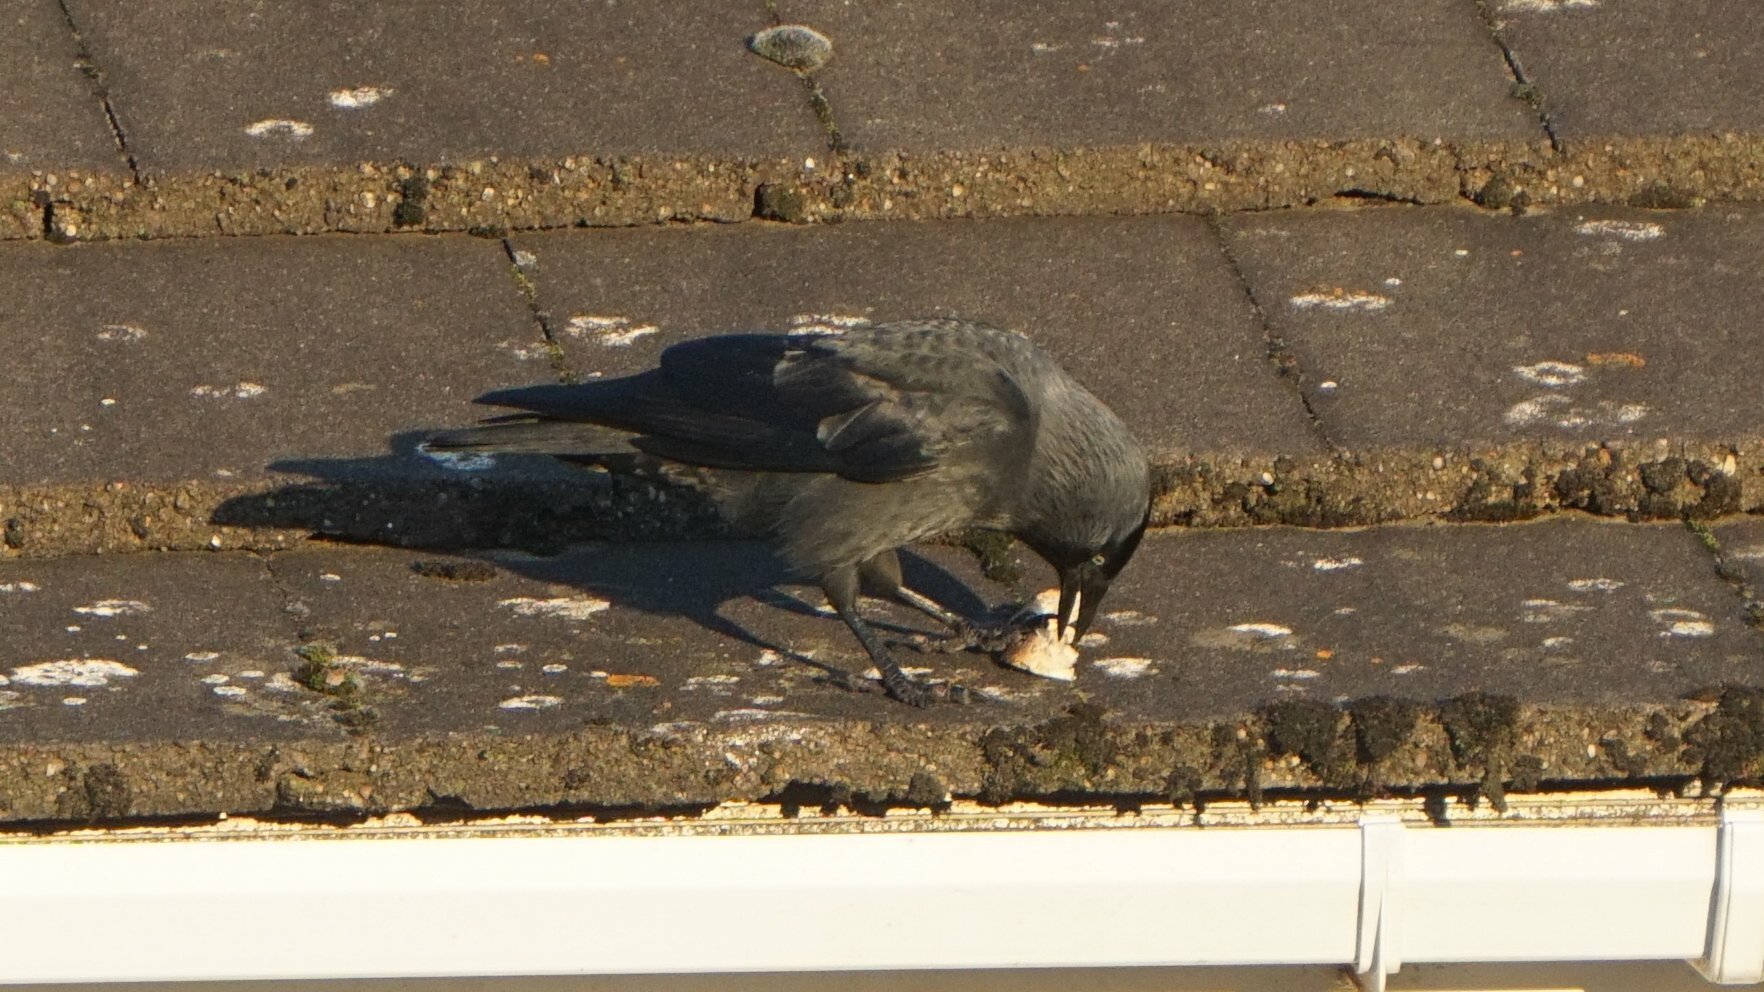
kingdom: Animalia
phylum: Chordata
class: Aves
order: Passeriformes
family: Corvidae
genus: Coloeus
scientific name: Coloeus monedula
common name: Western jackdaw
